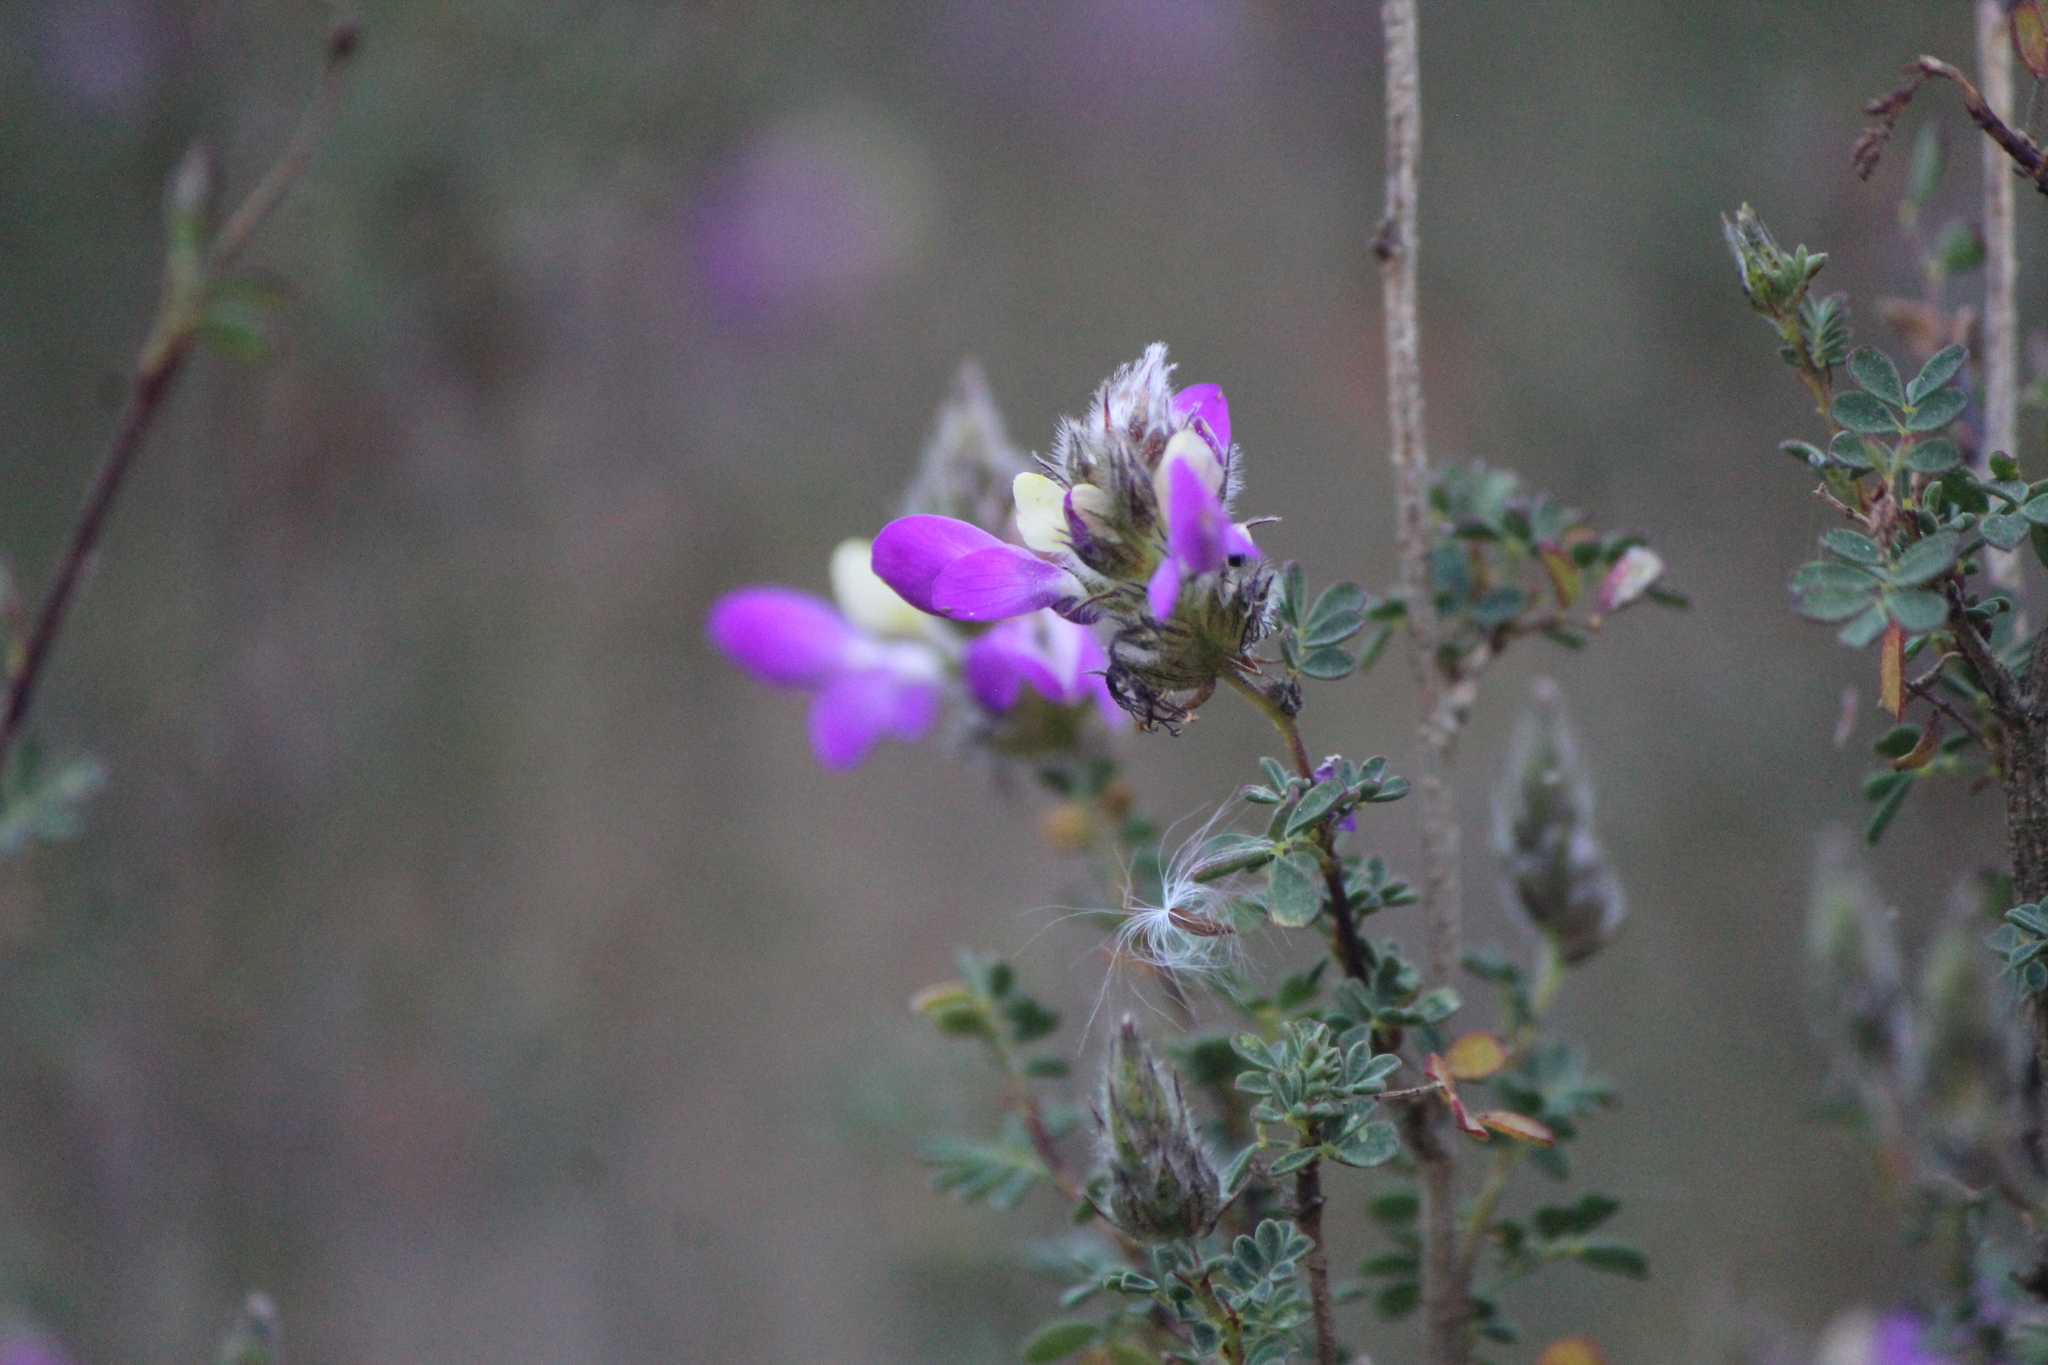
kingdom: Plantae
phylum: Tracheophyta
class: Magnoliopsida
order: Fabales
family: Fabaceae
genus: Dalea
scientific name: Dalea bicolor
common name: Silver prairie-clover
